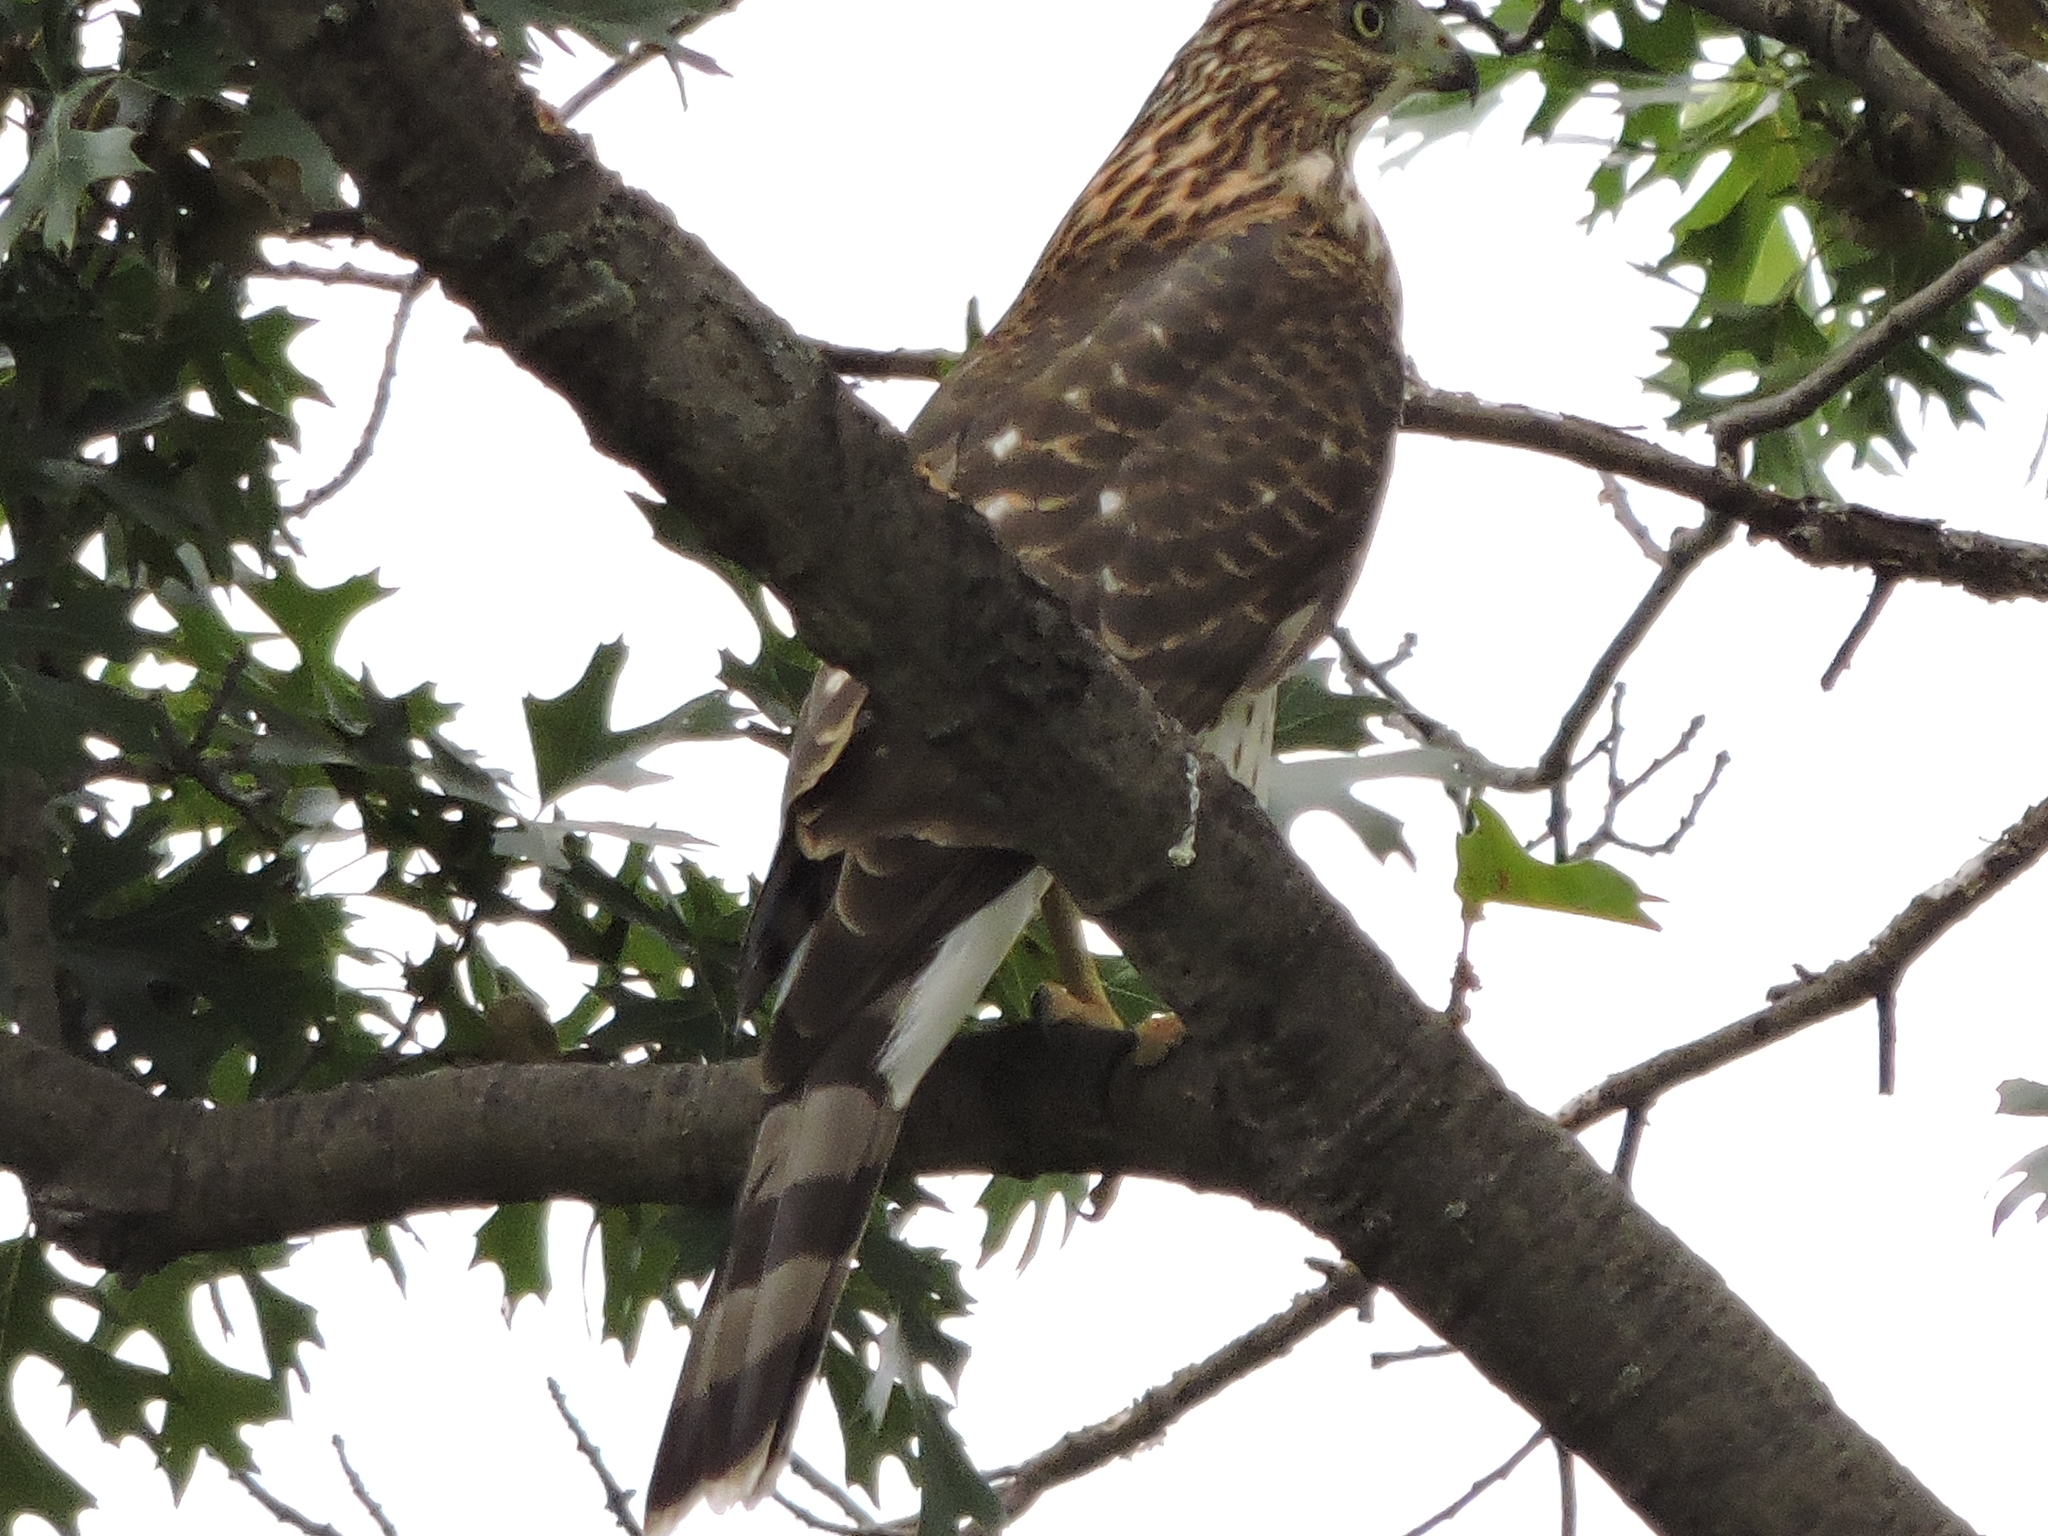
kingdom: Animalia
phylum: Chordata
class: Aves
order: Accipitriformes
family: Accipitridae
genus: Accipiter
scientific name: Accipiter cooperii
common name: Cooper's hawk
